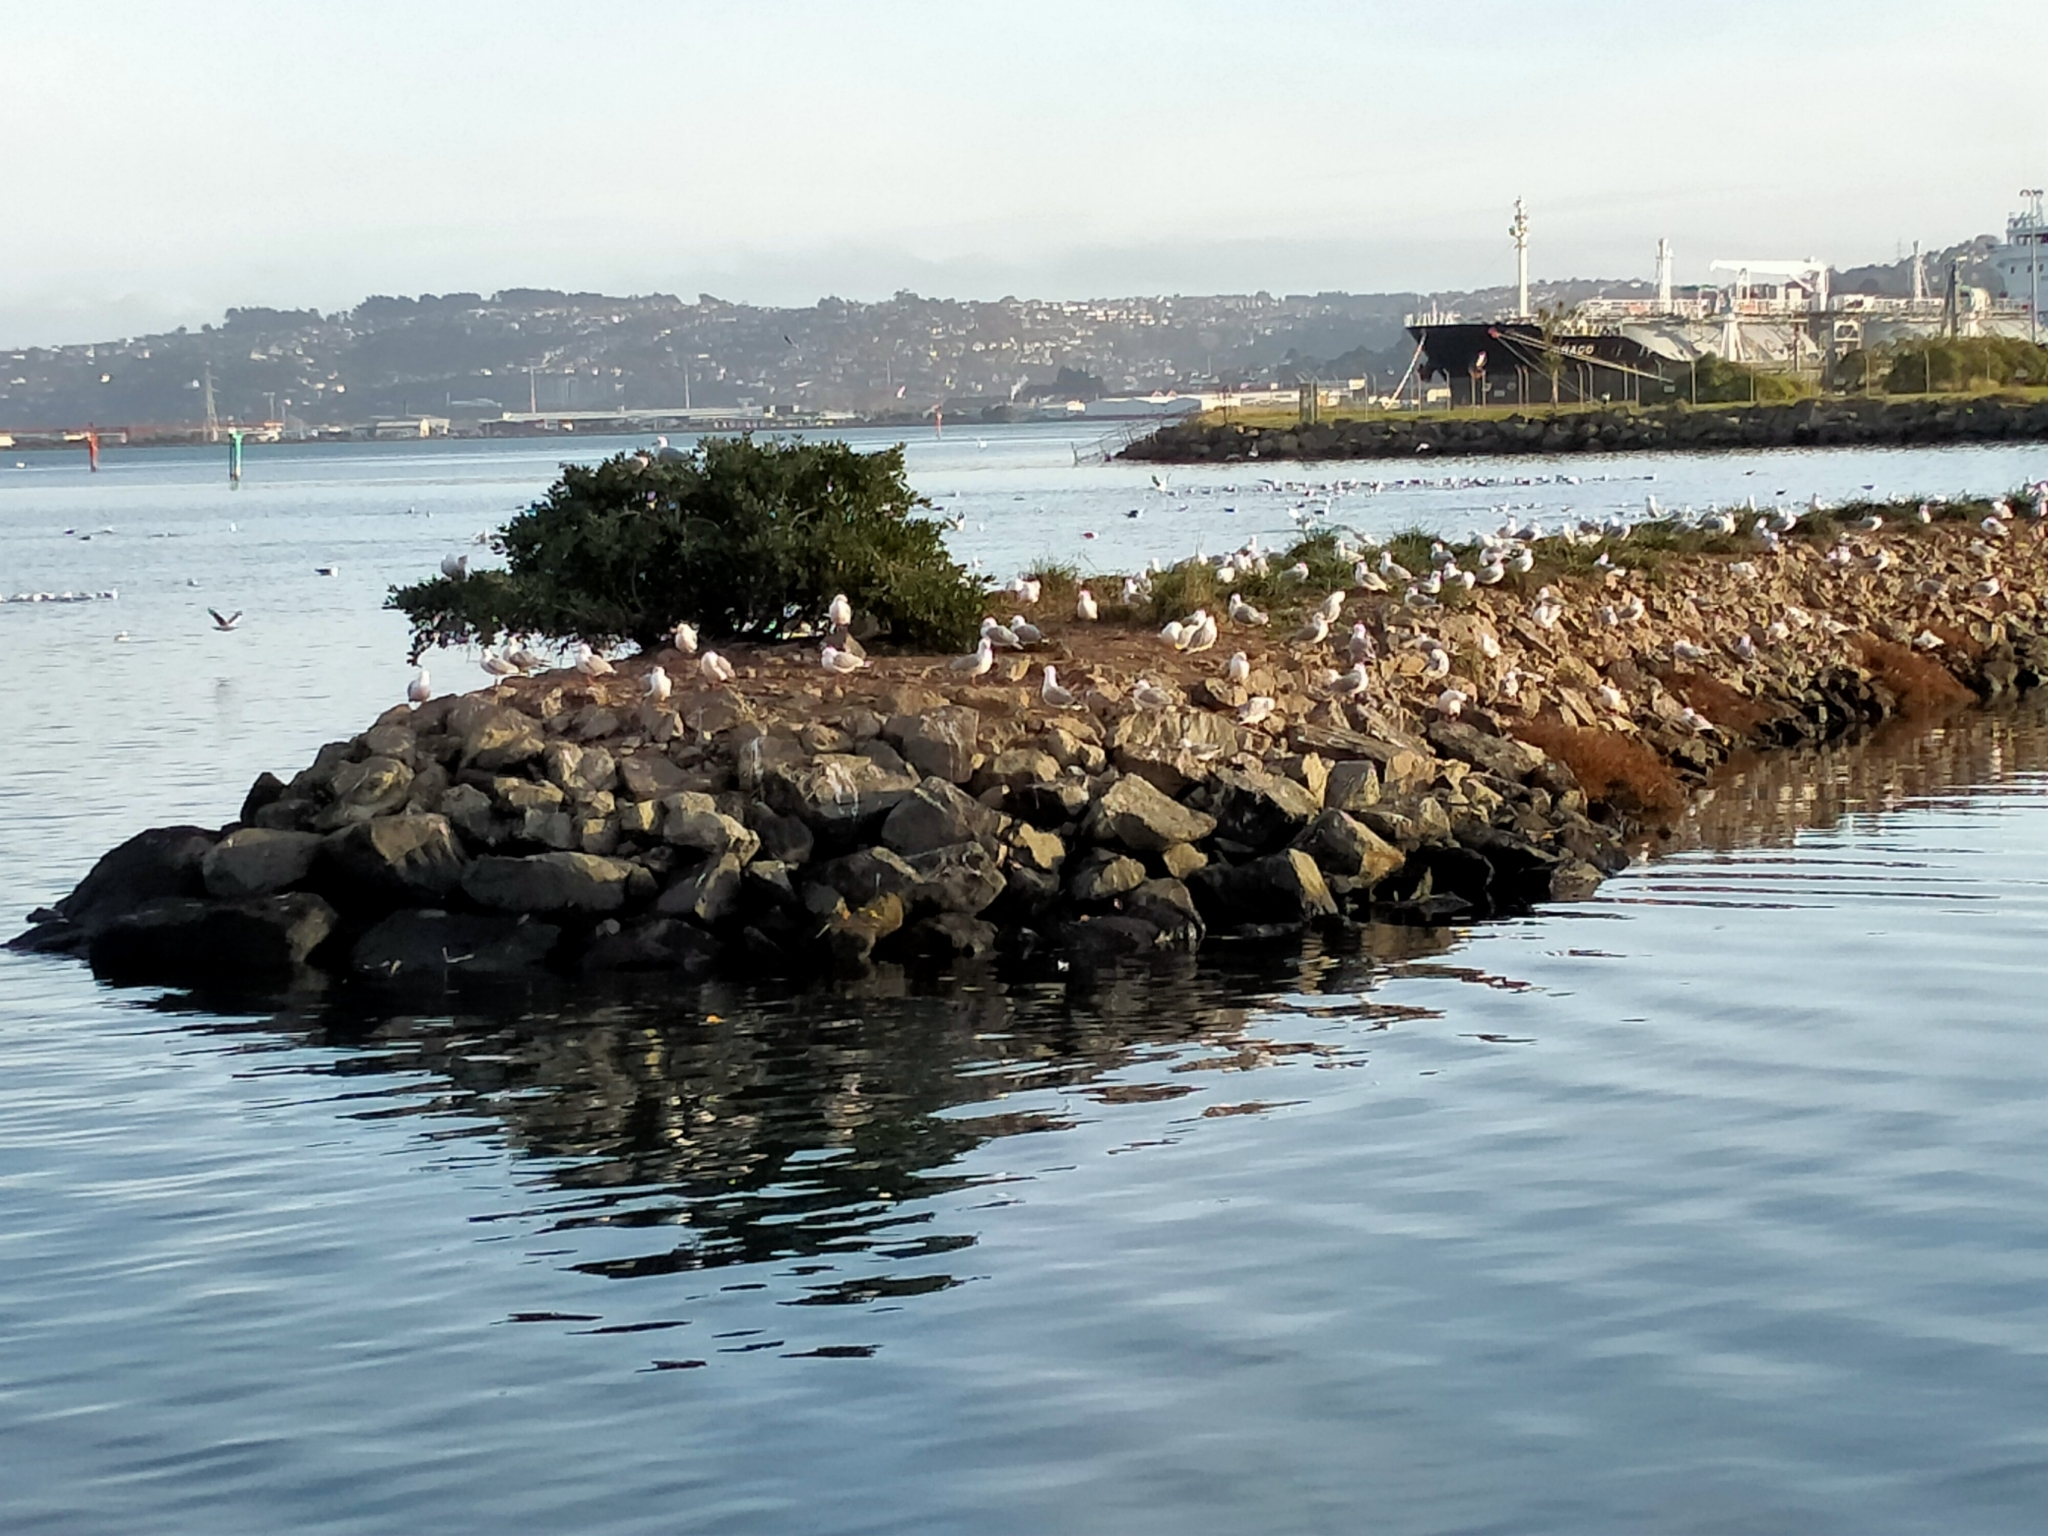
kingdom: Animalia
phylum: Chordata
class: Aves
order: Charadriiformes
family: Laridae
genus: Chroicocephalus
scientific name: Chroicocephalus novaehollandiae
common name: Silver gull
